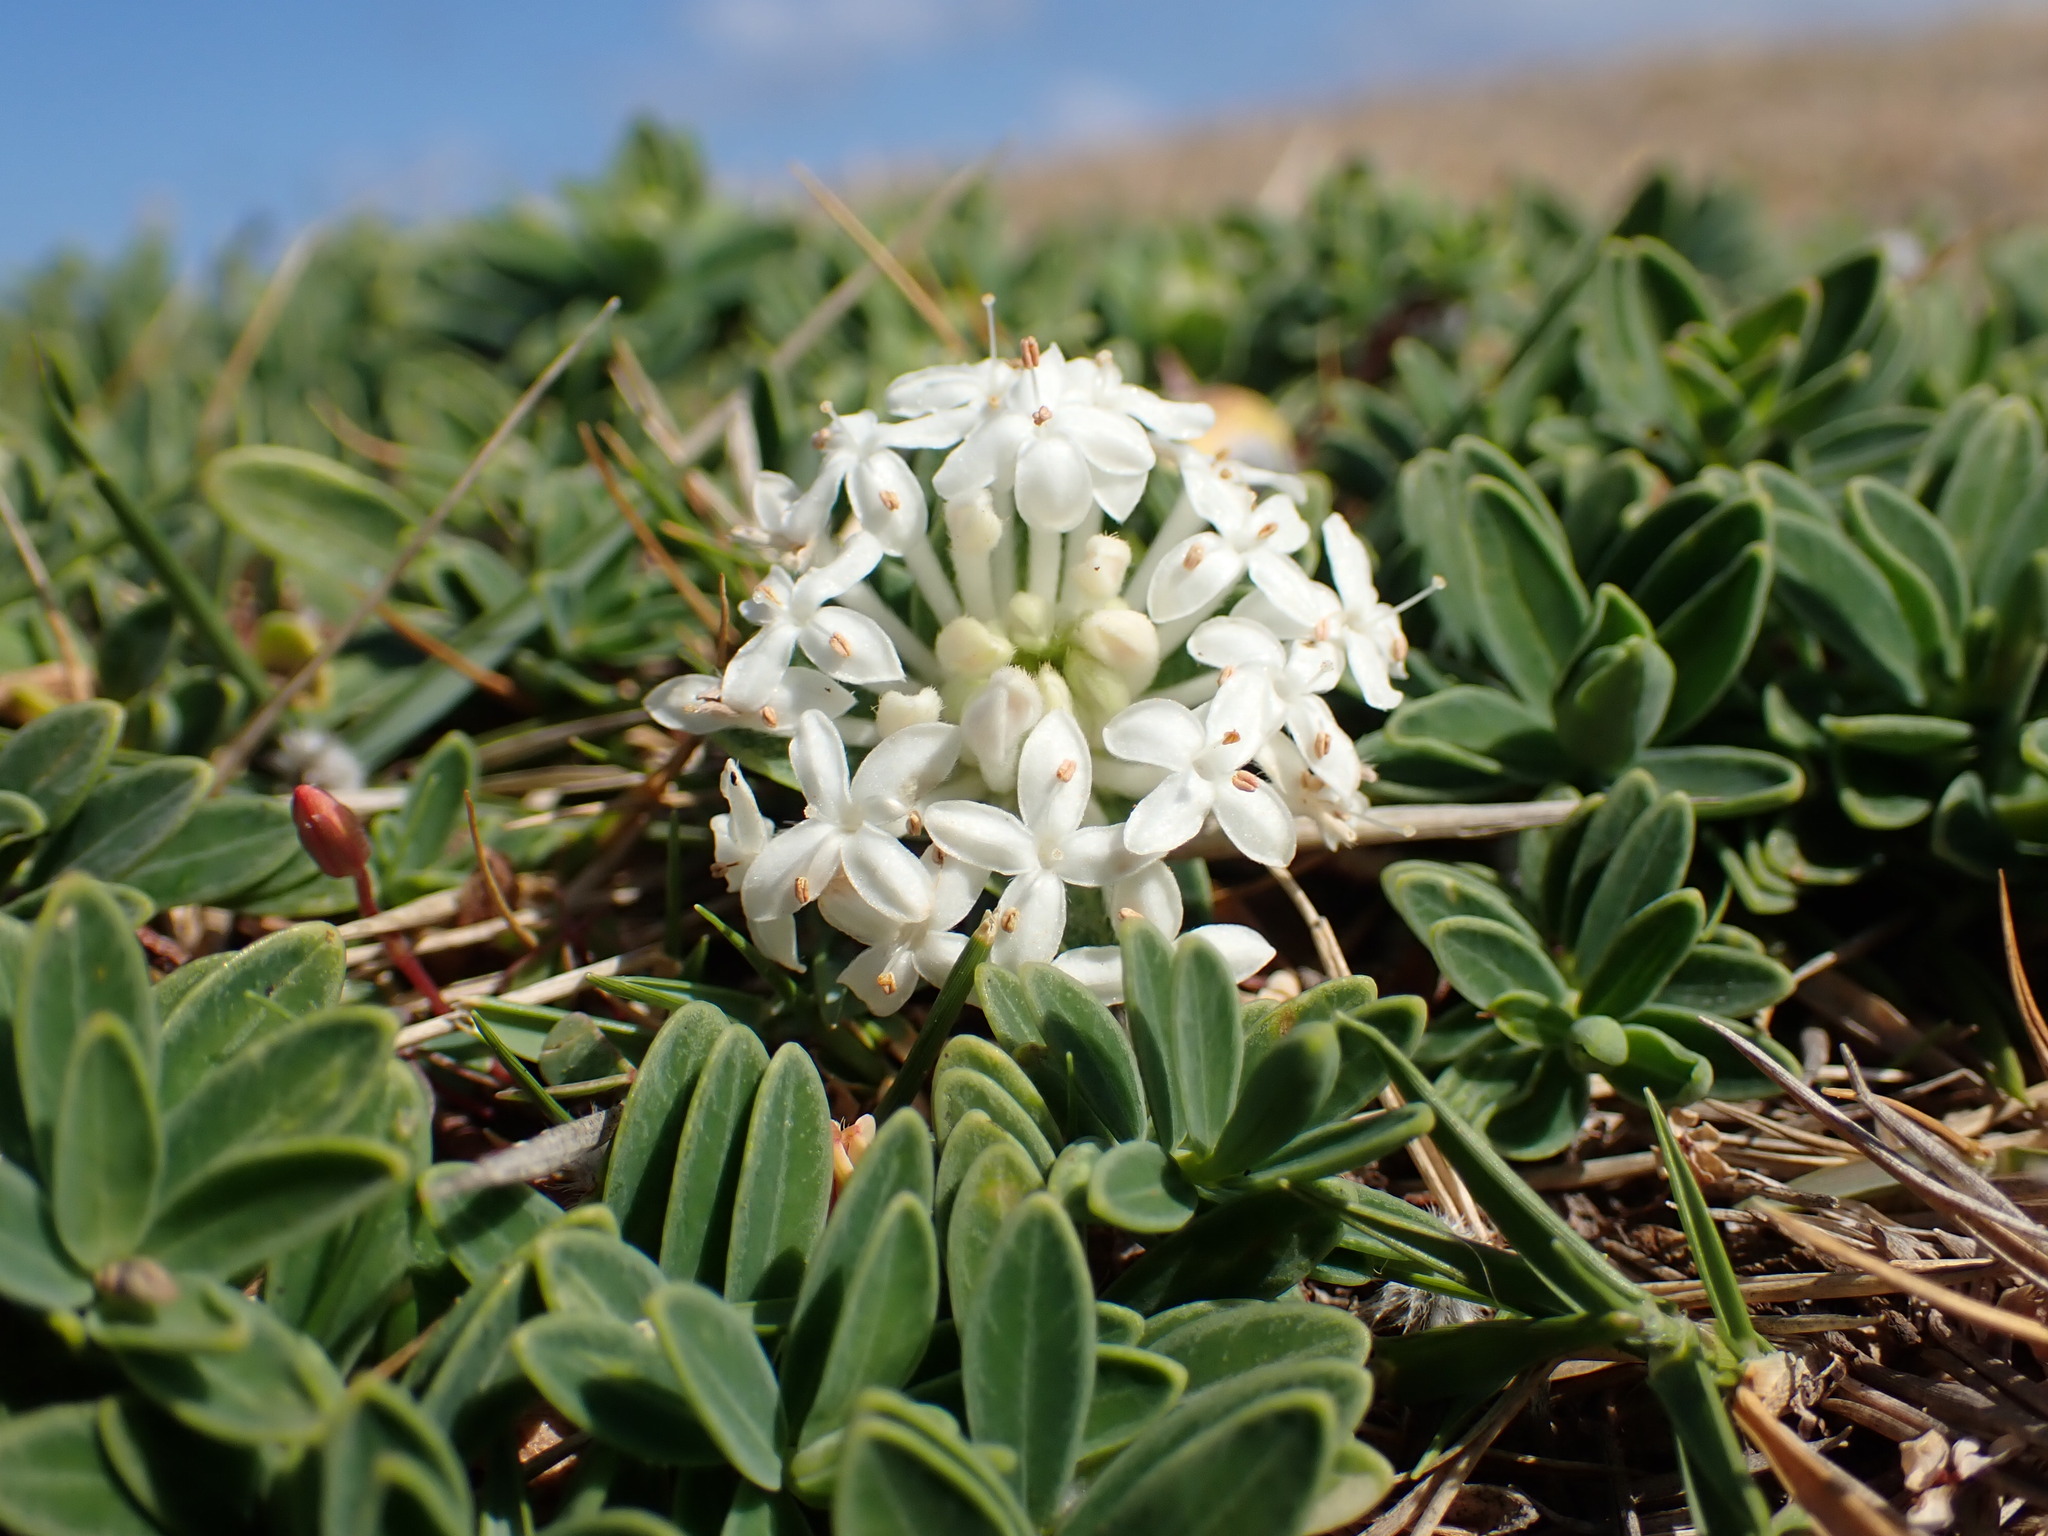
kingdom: Plantae
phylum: Tracheophyta
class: Magnoliopsida
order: Malvales
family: Thymelaeaceae
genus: Pimelea
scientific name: Pimelea linifolia
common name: Queen-of-the-bush
